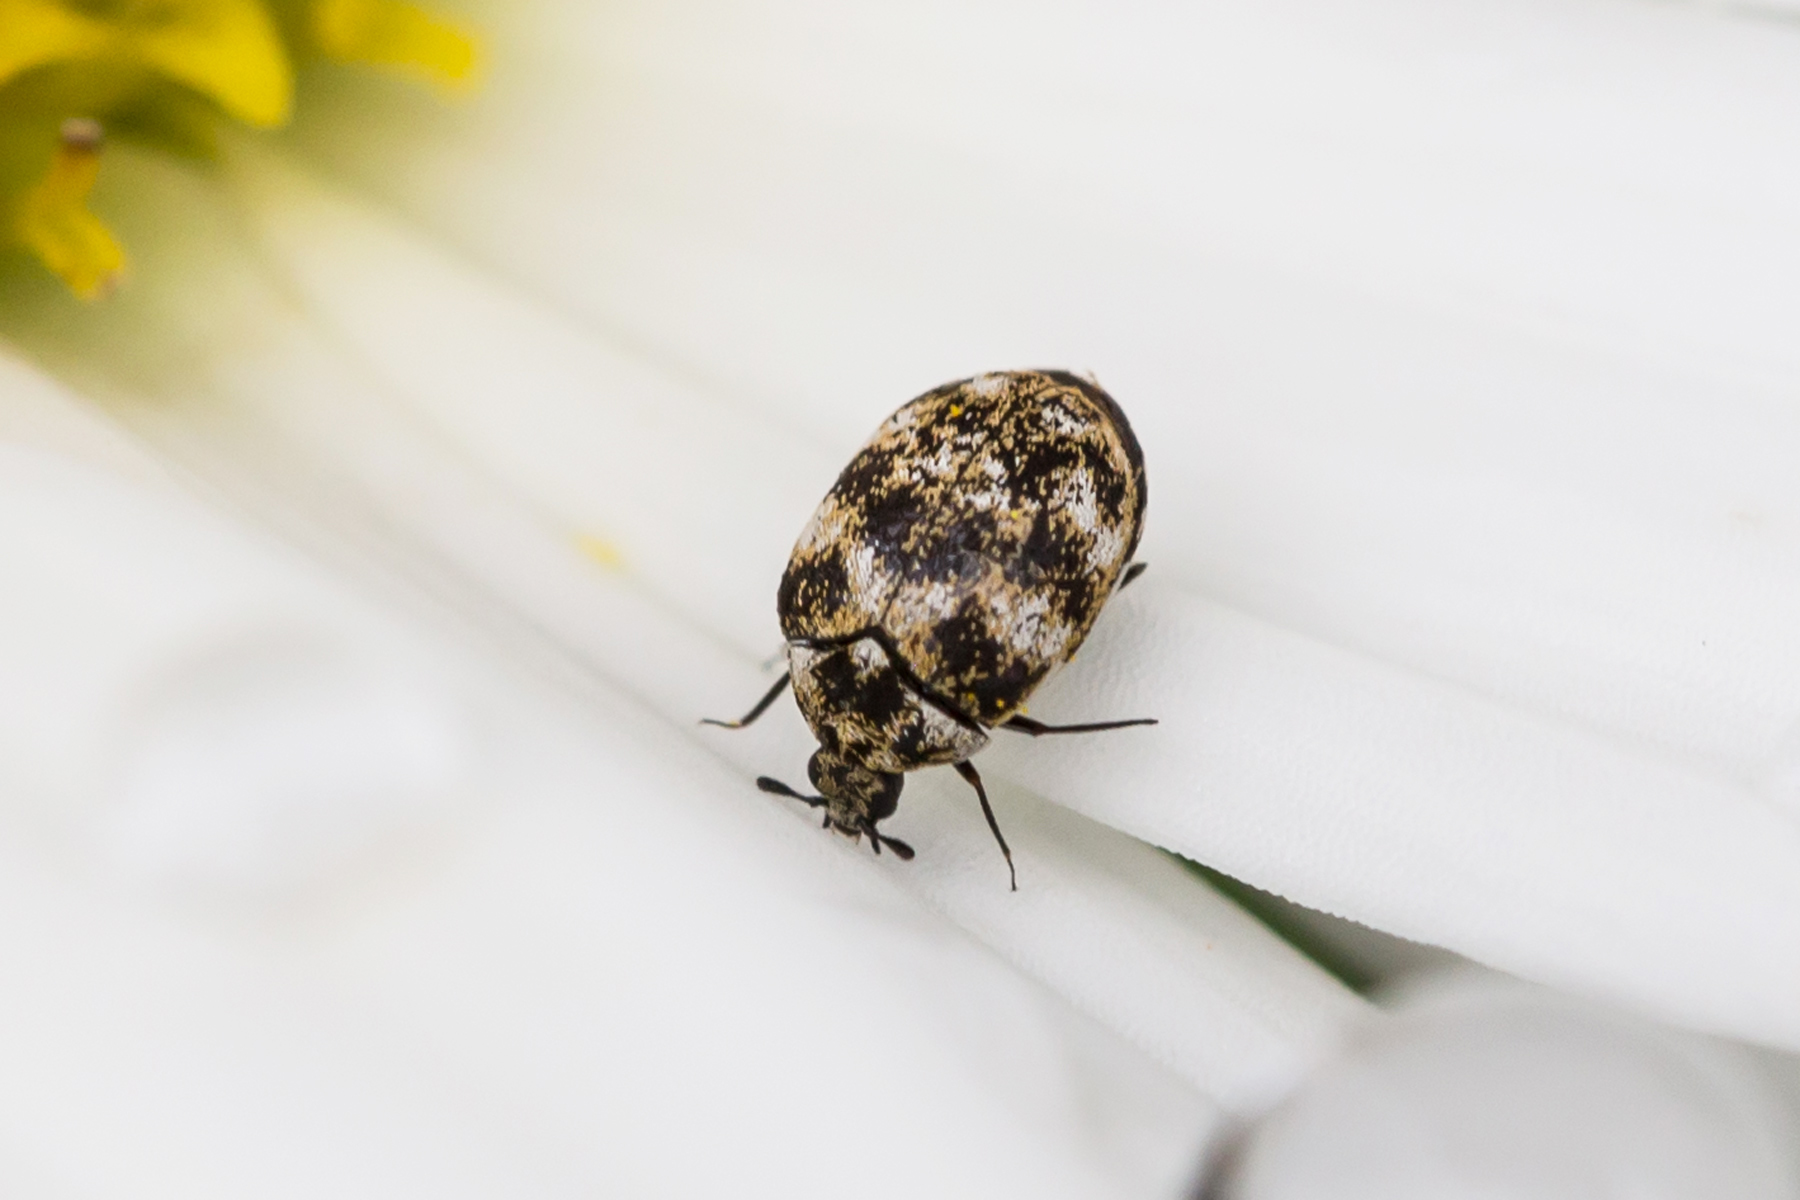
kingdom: Animalia
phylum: Arthropoda
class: Insecta
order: Coleoptera
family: Dermestidae
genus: Anthrenus
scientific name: Anthrenus verbasci
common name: Varied carpet beetle
